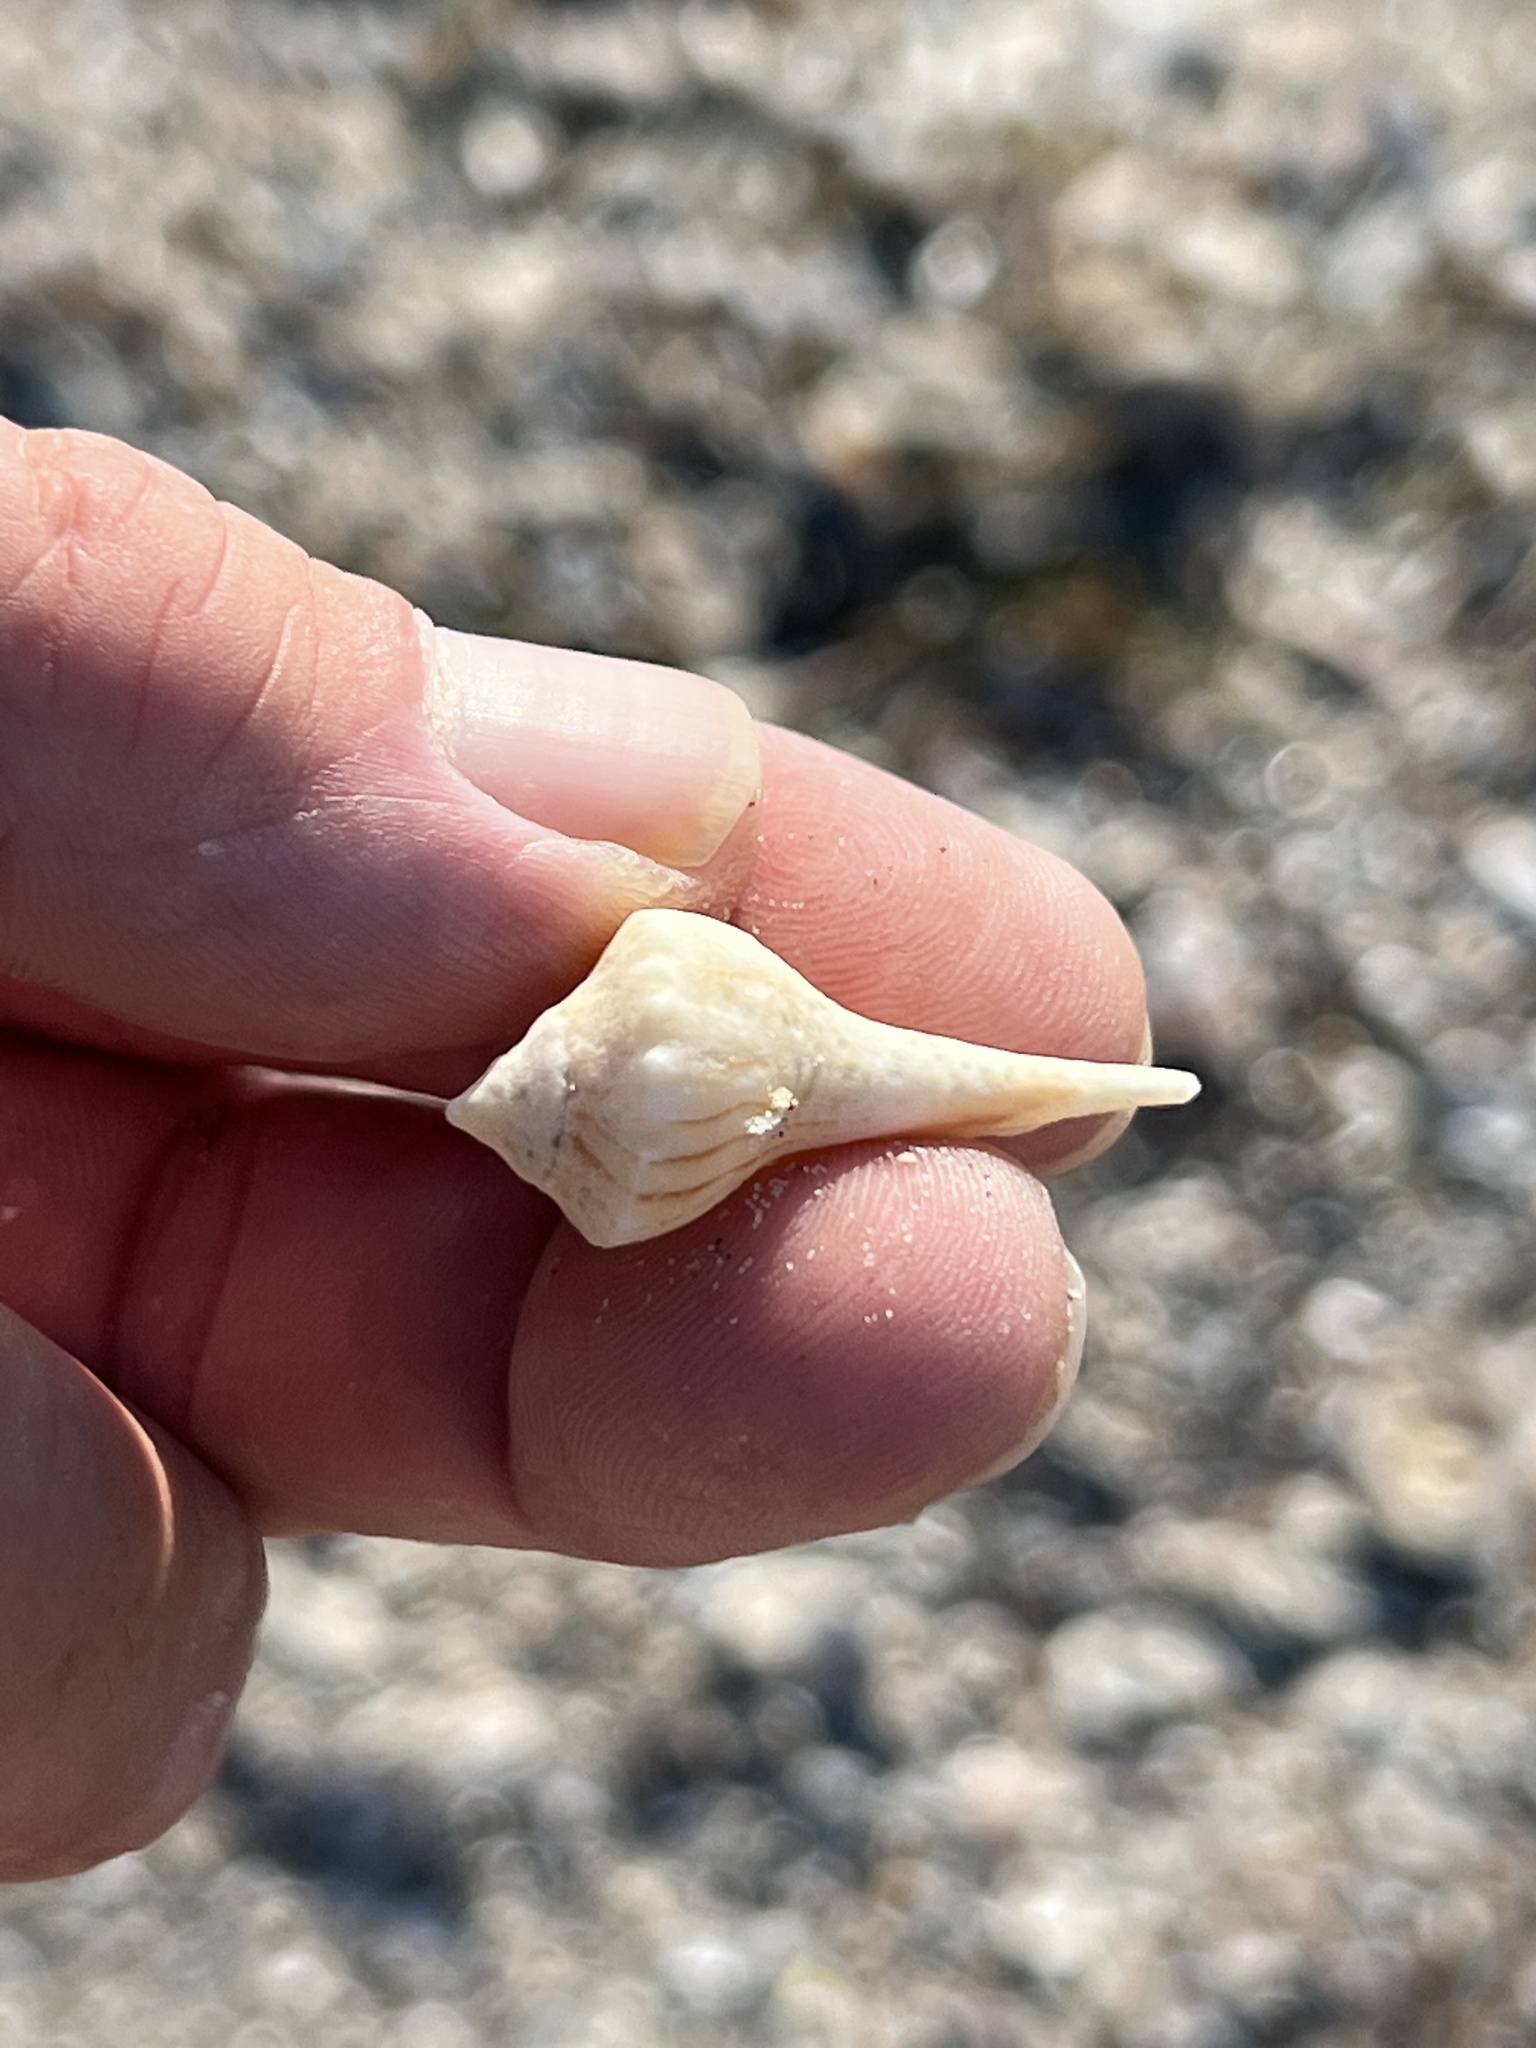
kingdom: Animalia
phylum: Mollusca
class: Gastropoda
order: Neogastropoda
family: Busyconidae
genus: Sinistrofulgur
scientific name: Sinistrofulgur pulleyi
